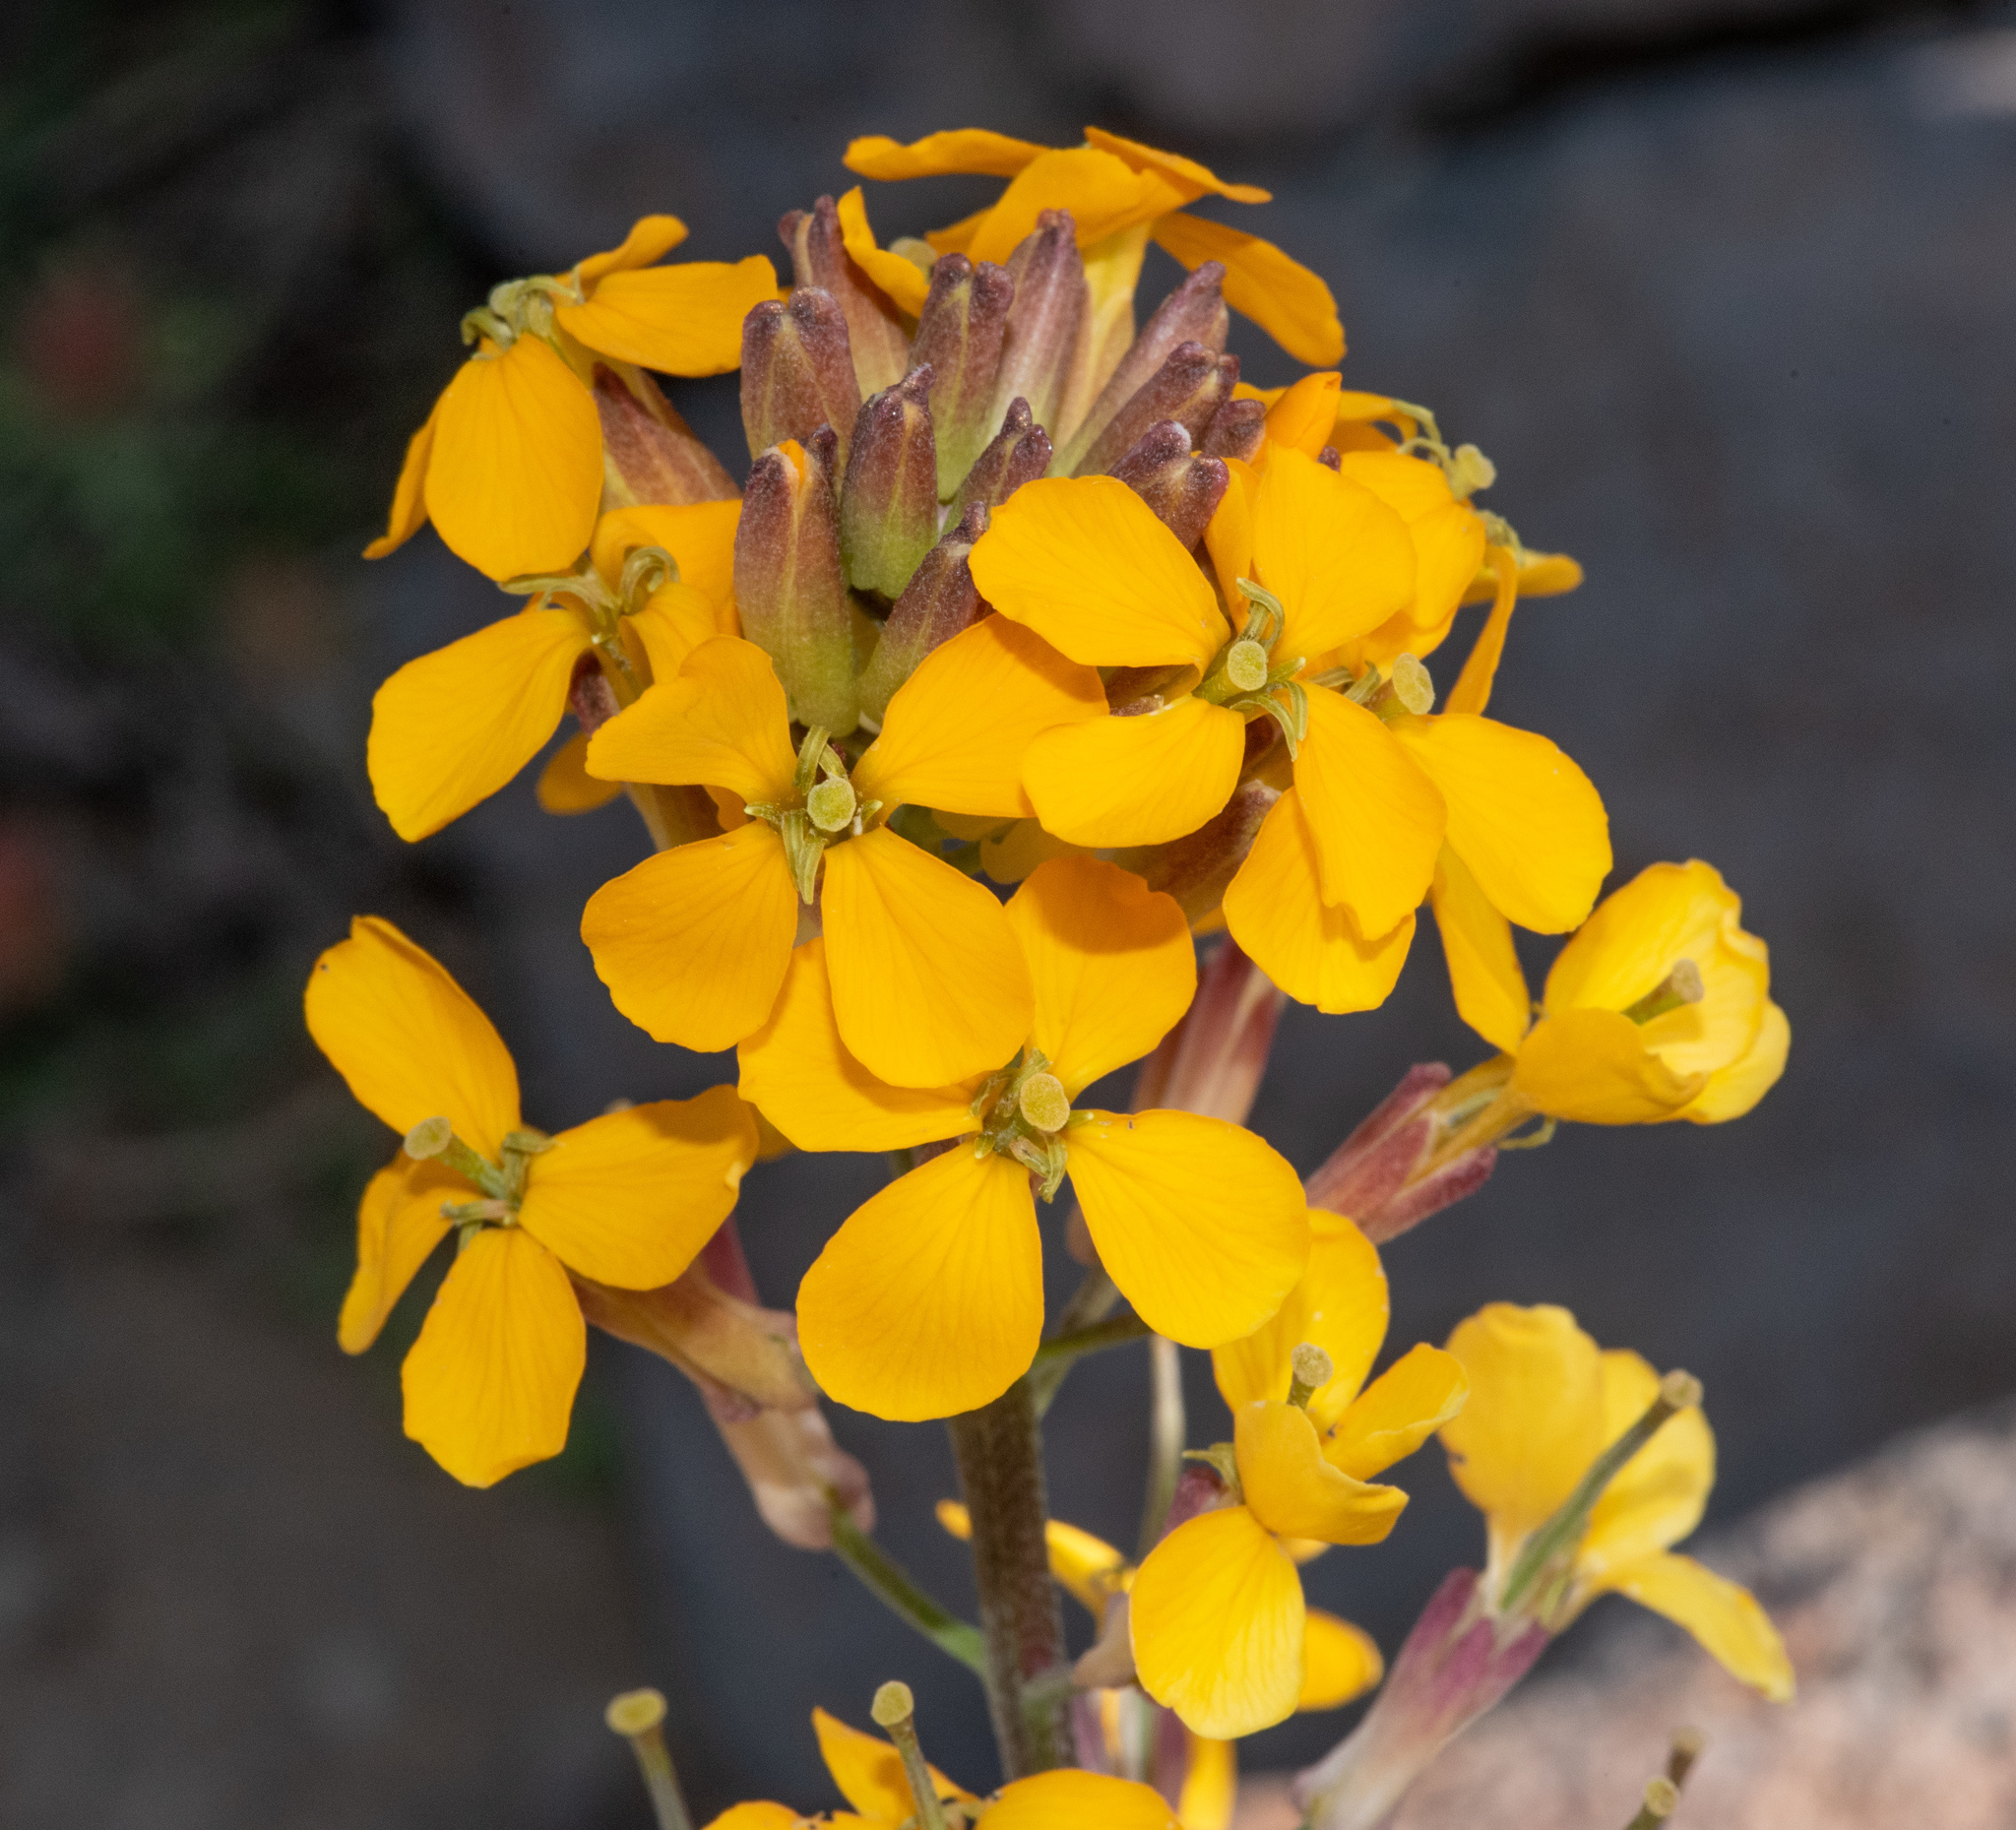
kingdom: Plantae
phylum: Tracheophyta
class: Magnoliopsida
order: Brassicales
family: Brassicaceae
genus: Erysimum
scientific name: Erysimum capitatum
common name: Western wallflower
